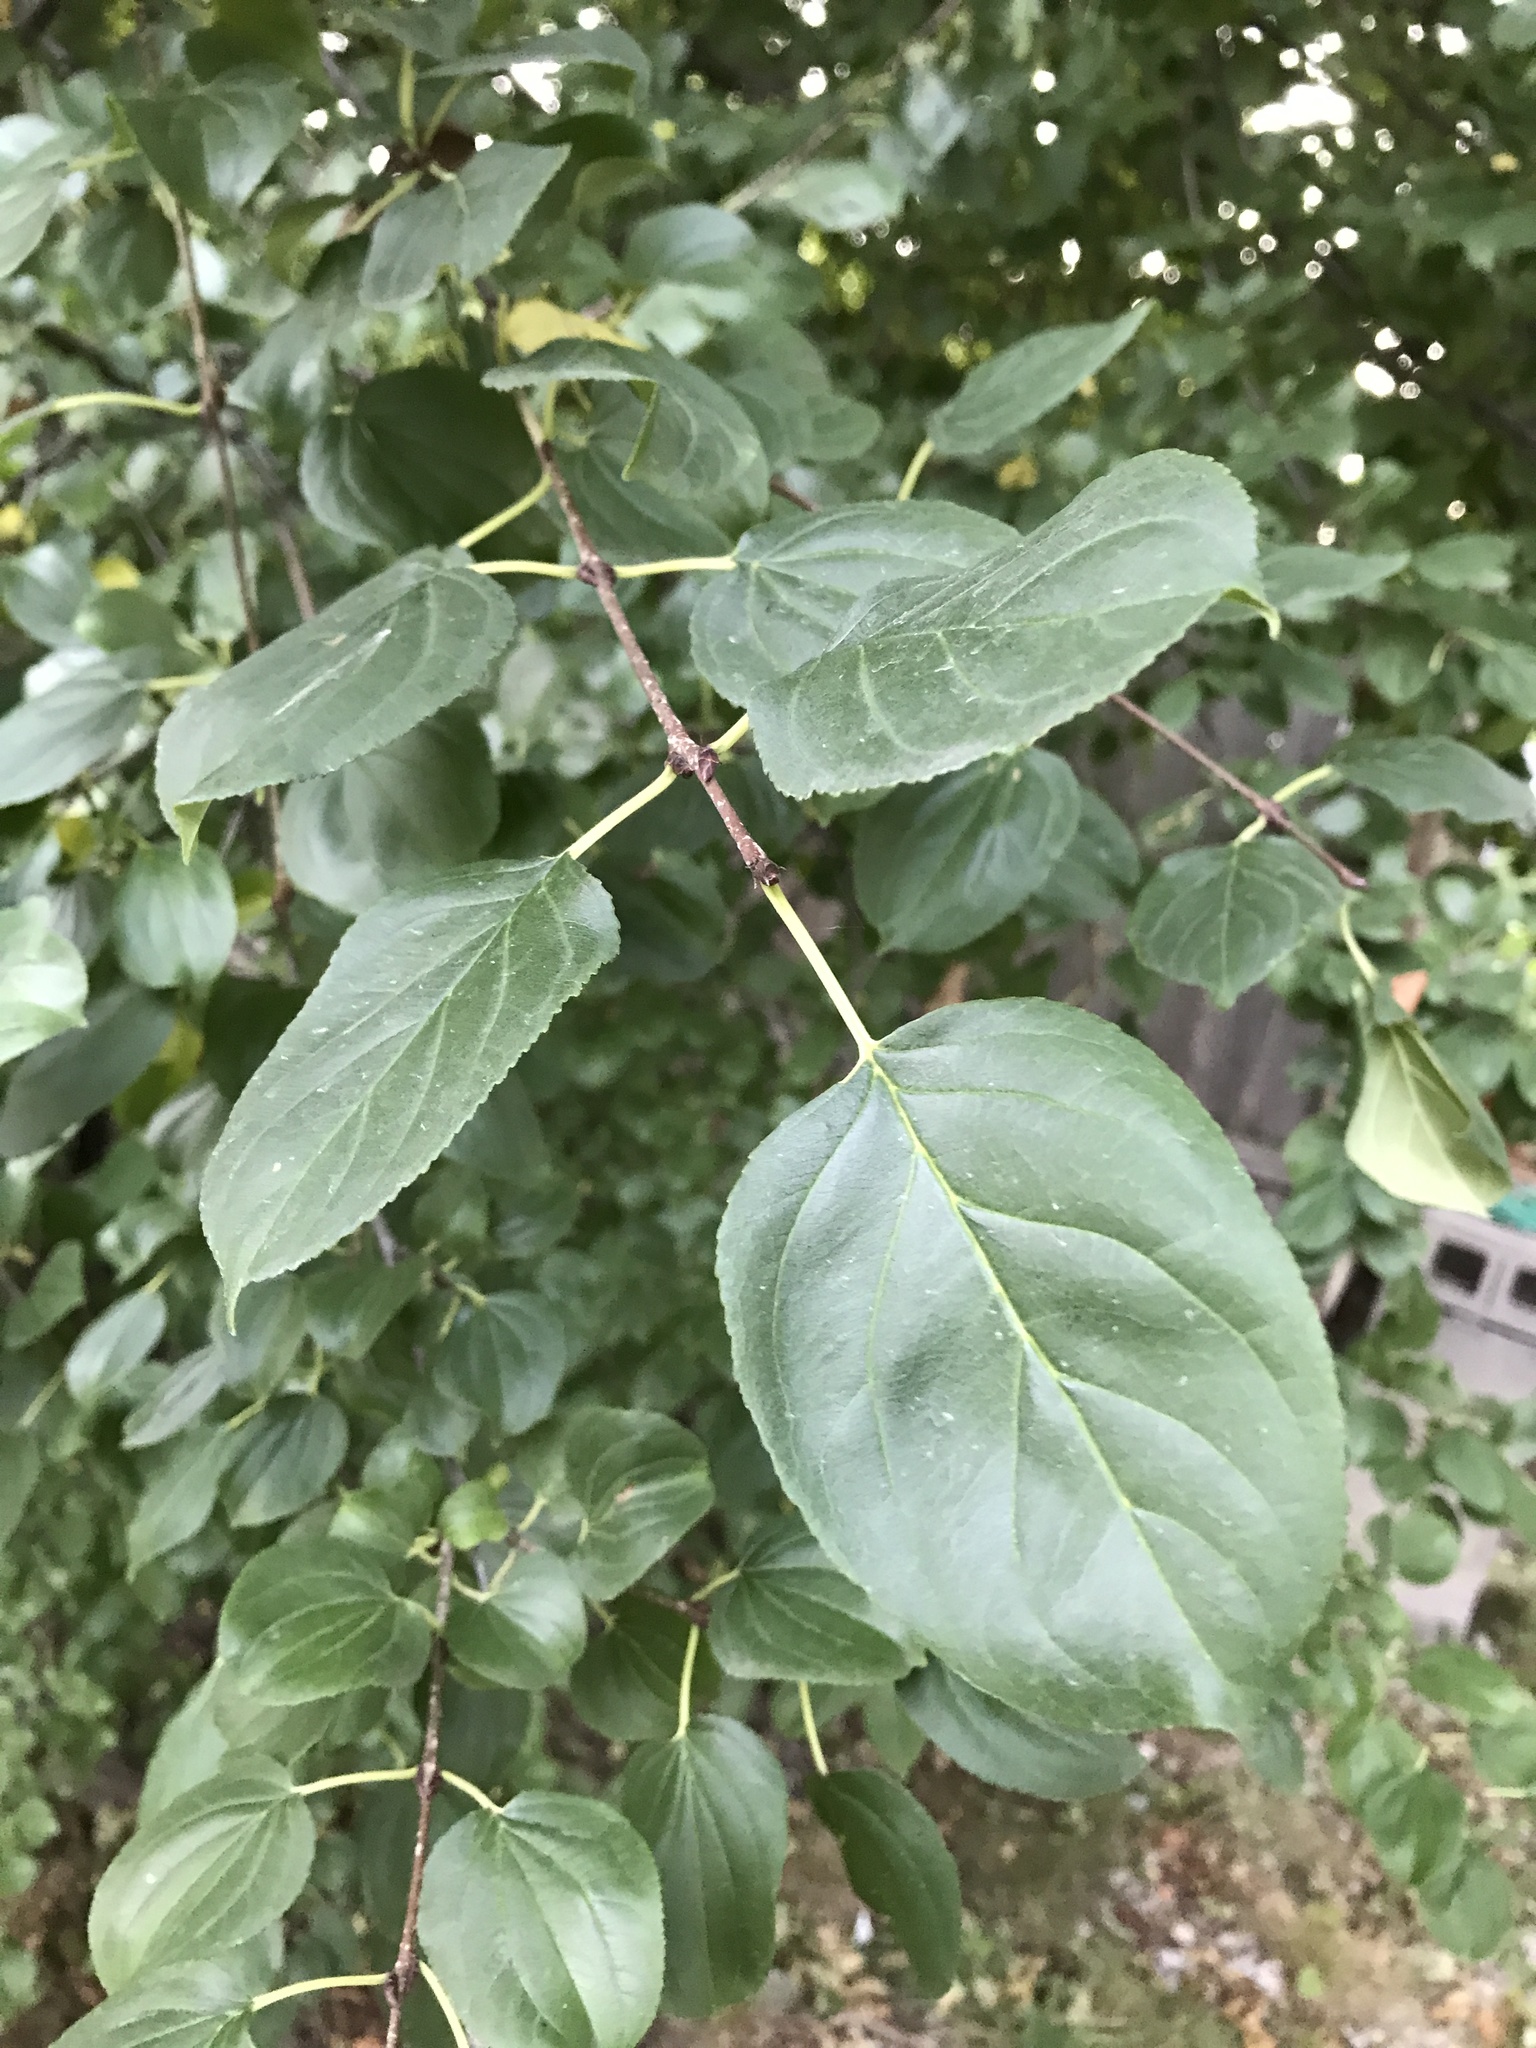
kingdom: Plantae
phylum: Tracheophyta
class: Magnoliopsida
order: Rosales
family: Rhamnaceae
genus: Rhamnus
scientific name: Rhamnus cathartica
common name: Common buckthorn
